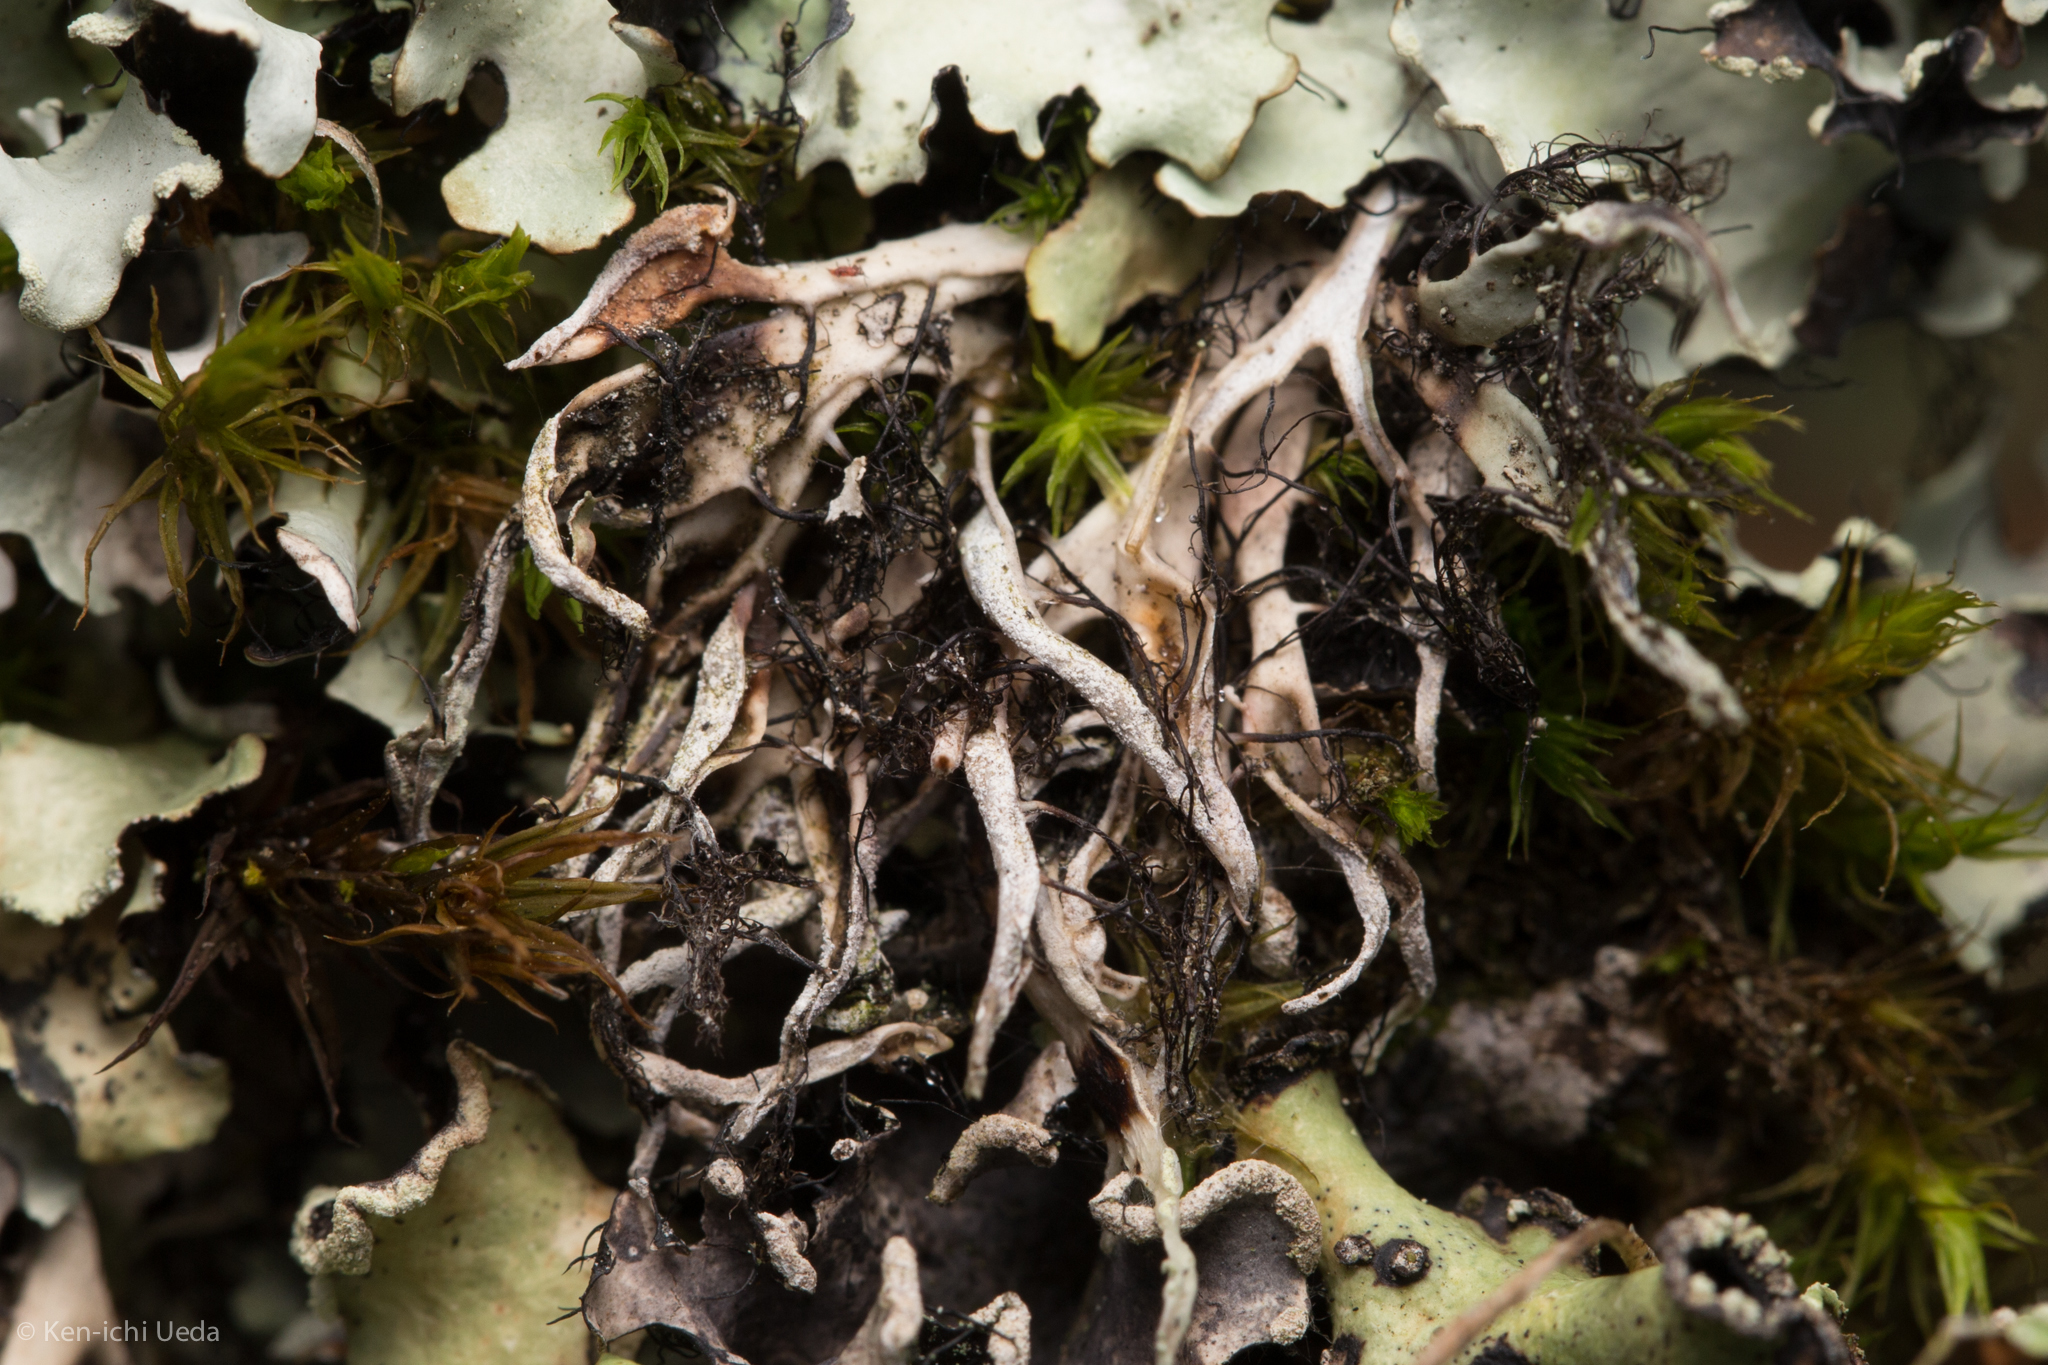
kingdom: Fungi
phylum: Ascomycota
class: Lecanoromycetes
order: Caliciales
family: Physciaceae
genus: Leucodermia
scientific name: Leucodermia leucomelos
